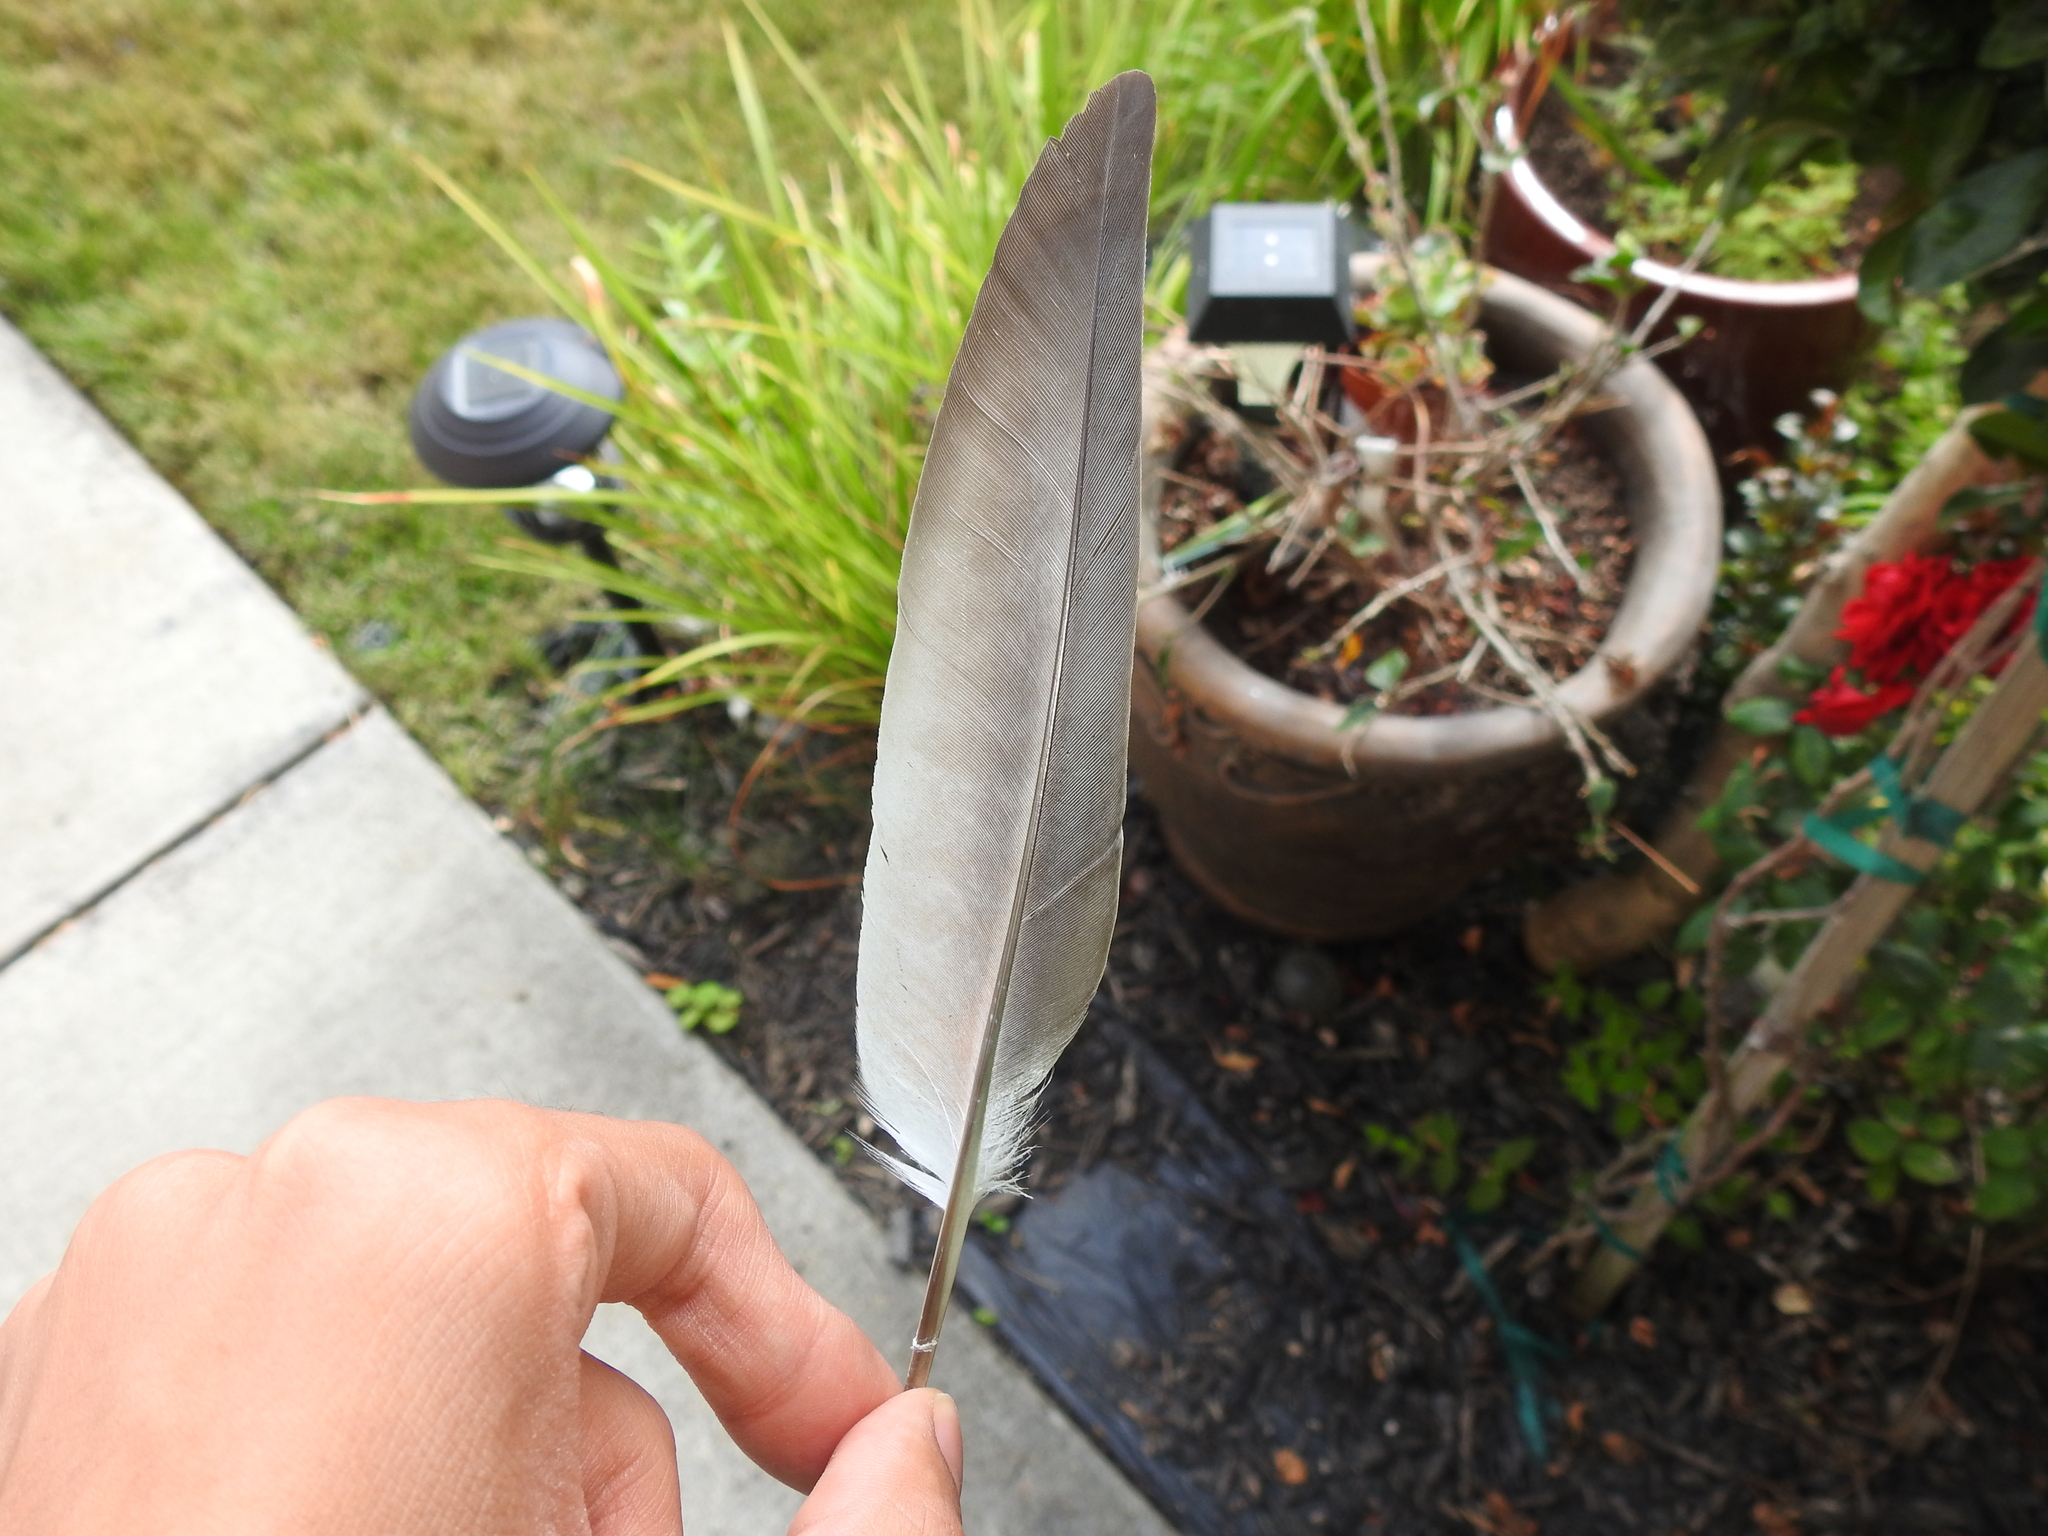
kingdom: Animalia
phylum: Chordata
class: Aves
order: Columbiformes
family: Columbidae
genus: Columba
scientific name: Columba livia
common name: Rock pigeon
